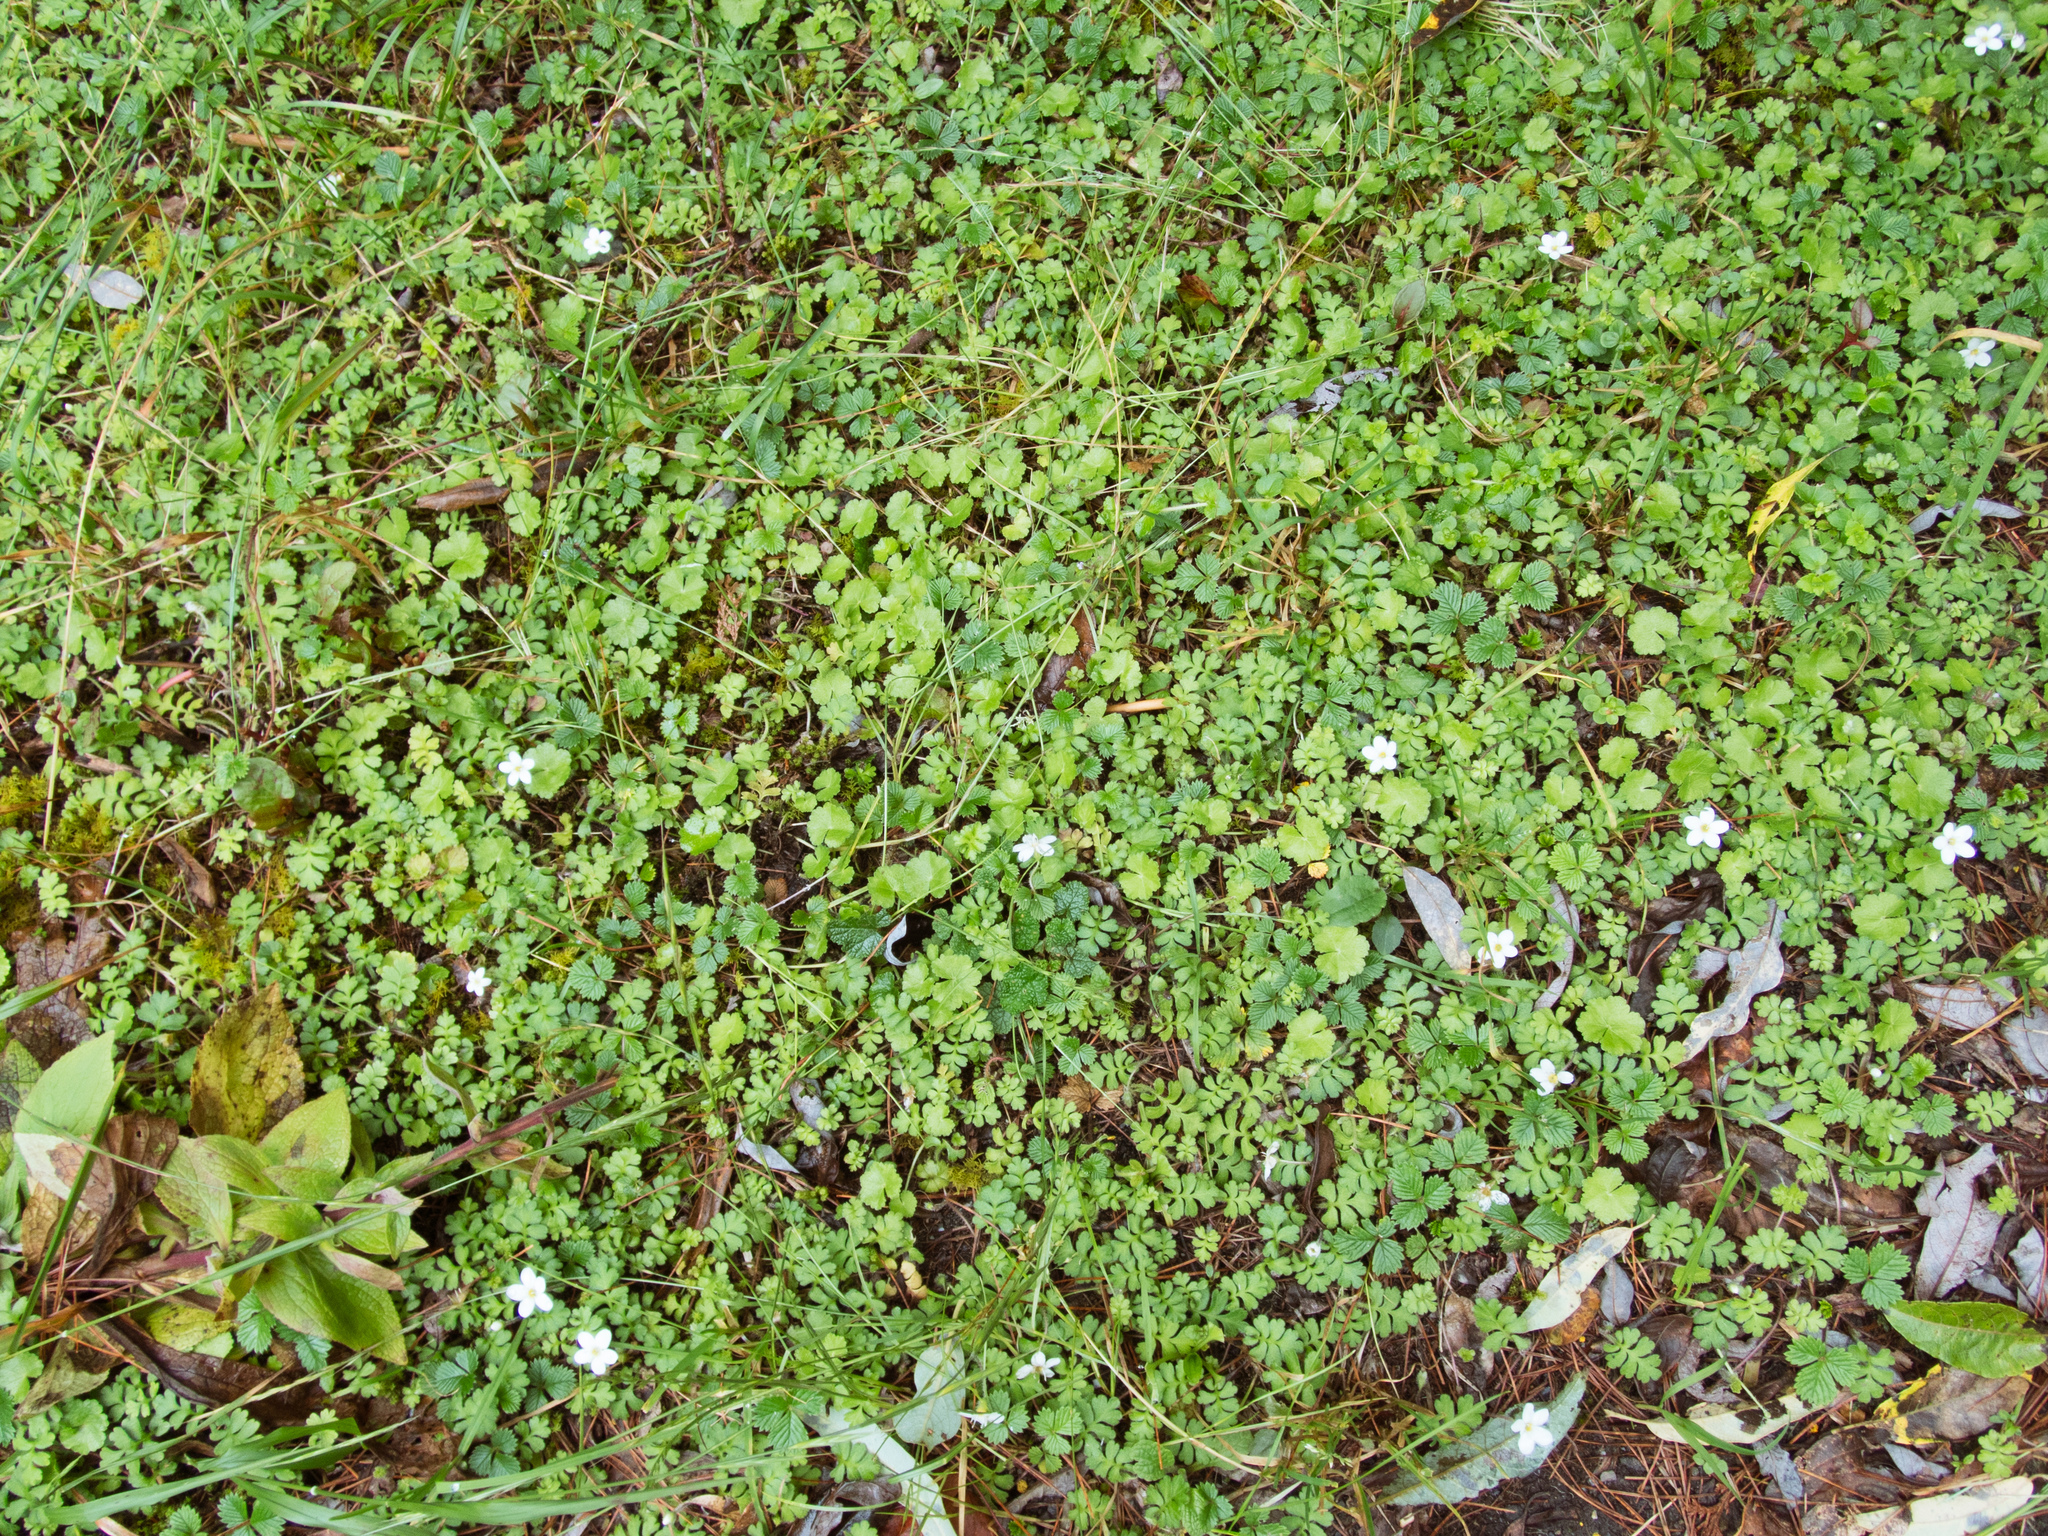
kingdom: Plantae
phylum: Tracheophyta
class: Magnoliopsida
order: Lamiales
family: Plantaginaceae
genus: Ellisiophyllum
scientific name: Ellisiophyllum pinnatum
